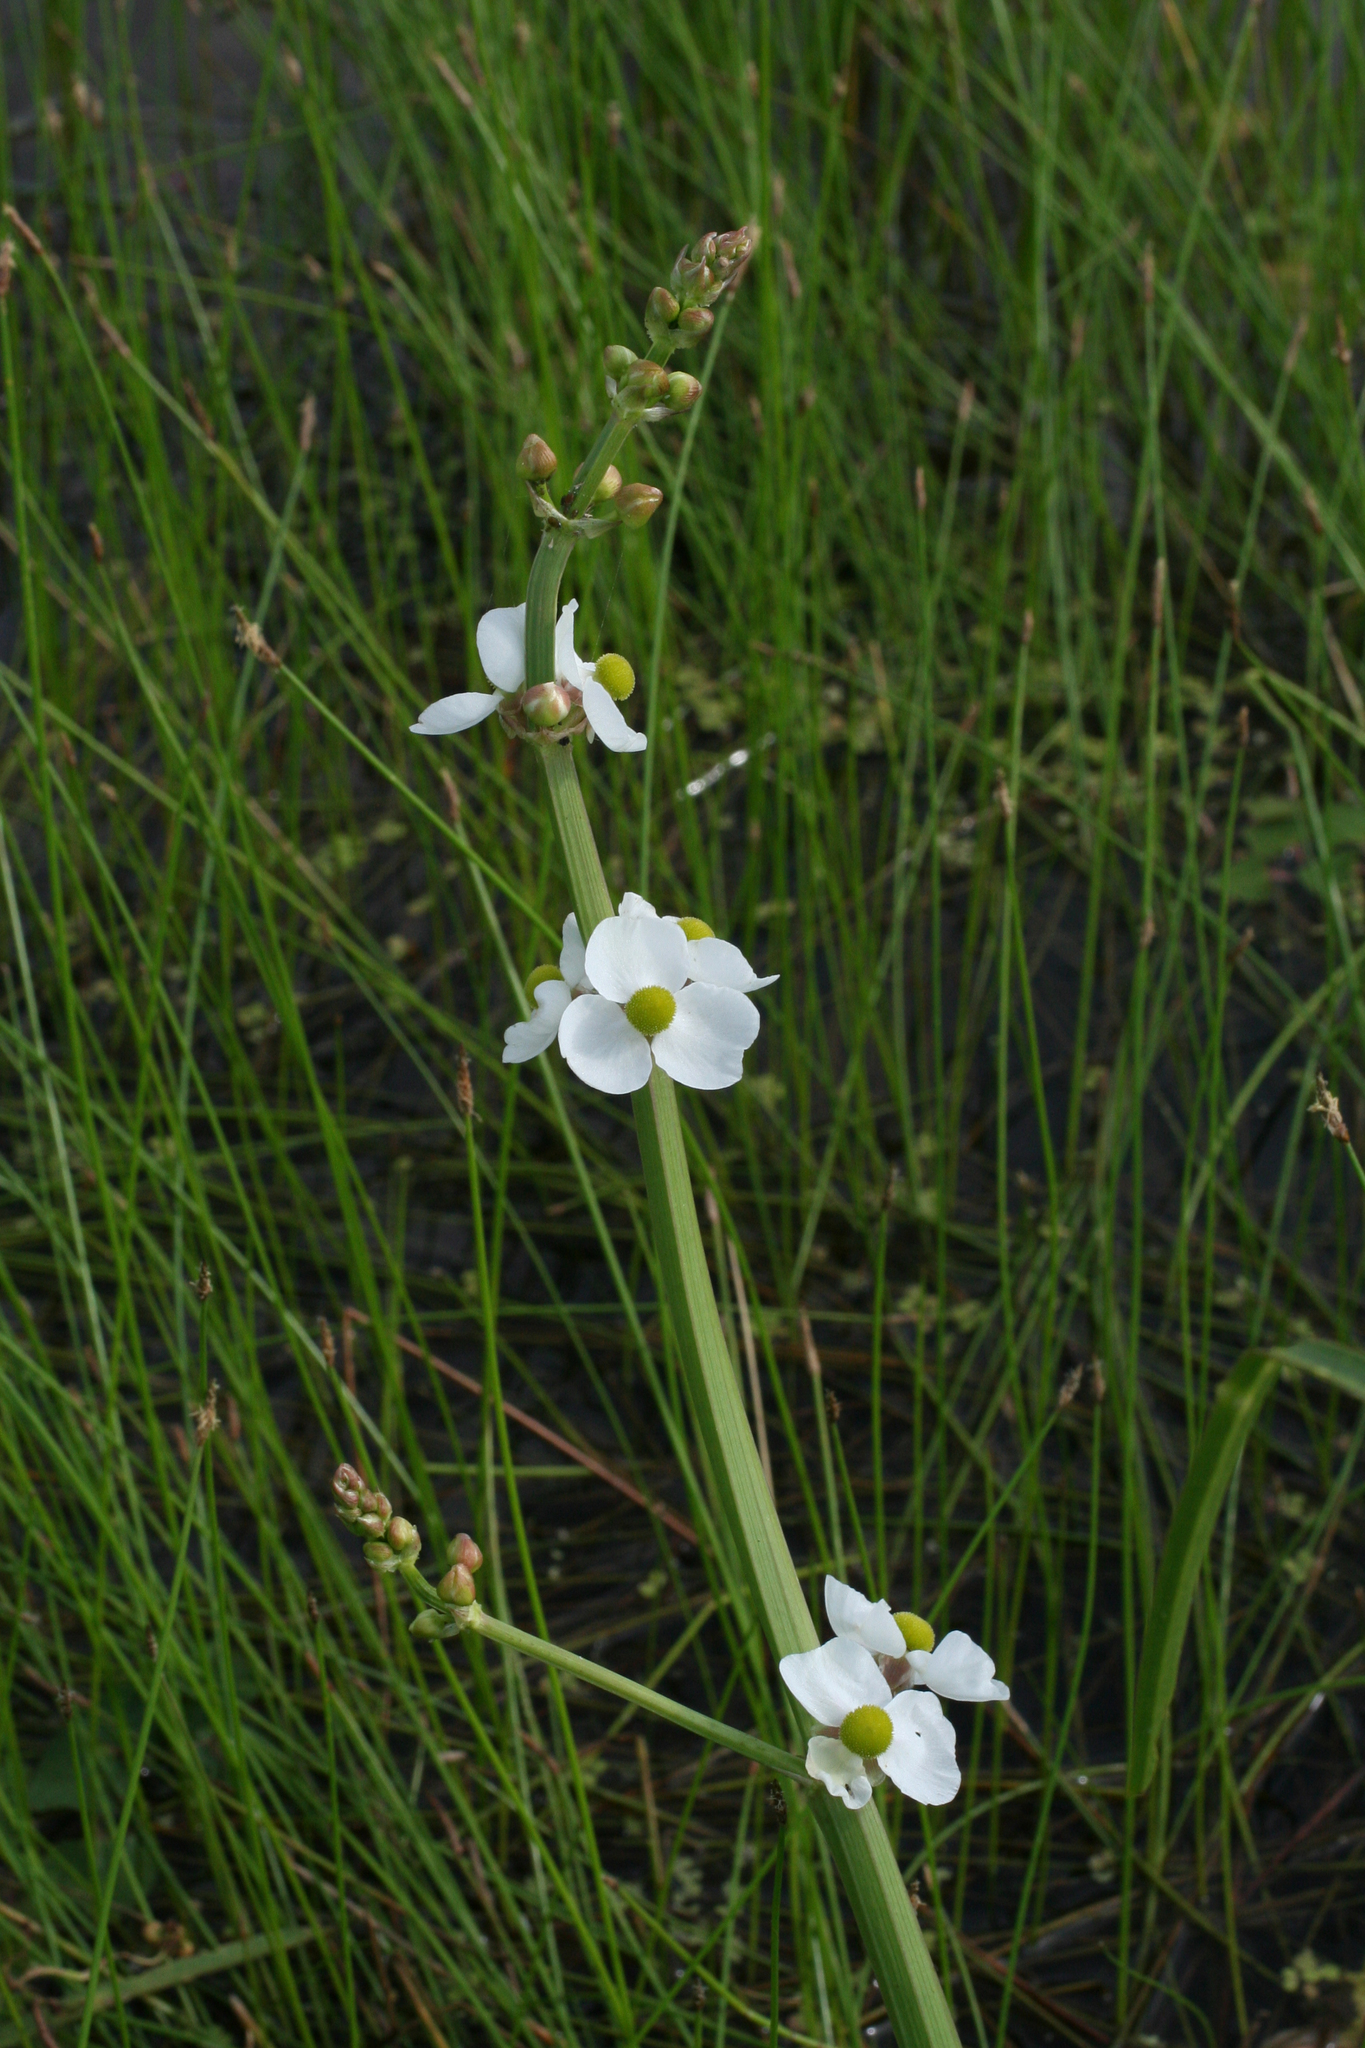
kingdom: Plantae
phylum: Tracheophyta
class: Liliopsida
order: Alismatales
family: Alismataceae
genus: Sagittaria
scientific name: Sagittaria trifolia
